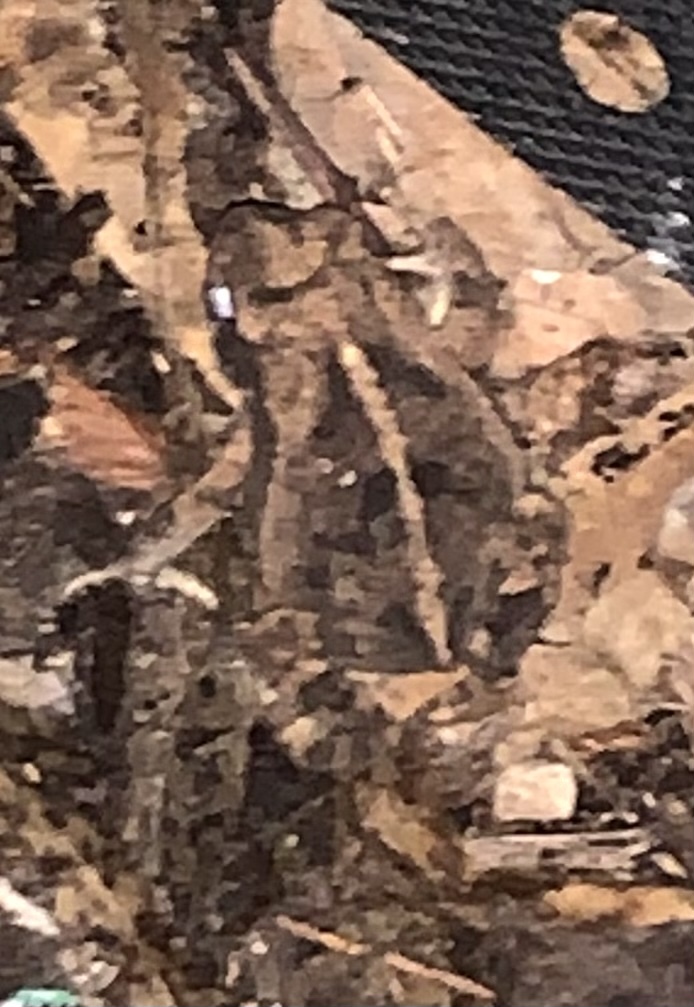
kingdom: Animalia
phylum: Chordata
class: Amphibia
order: Anura
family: Bufonidae
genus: Incilius
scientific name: Incilius nebulifer
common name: Gulf coast toad
